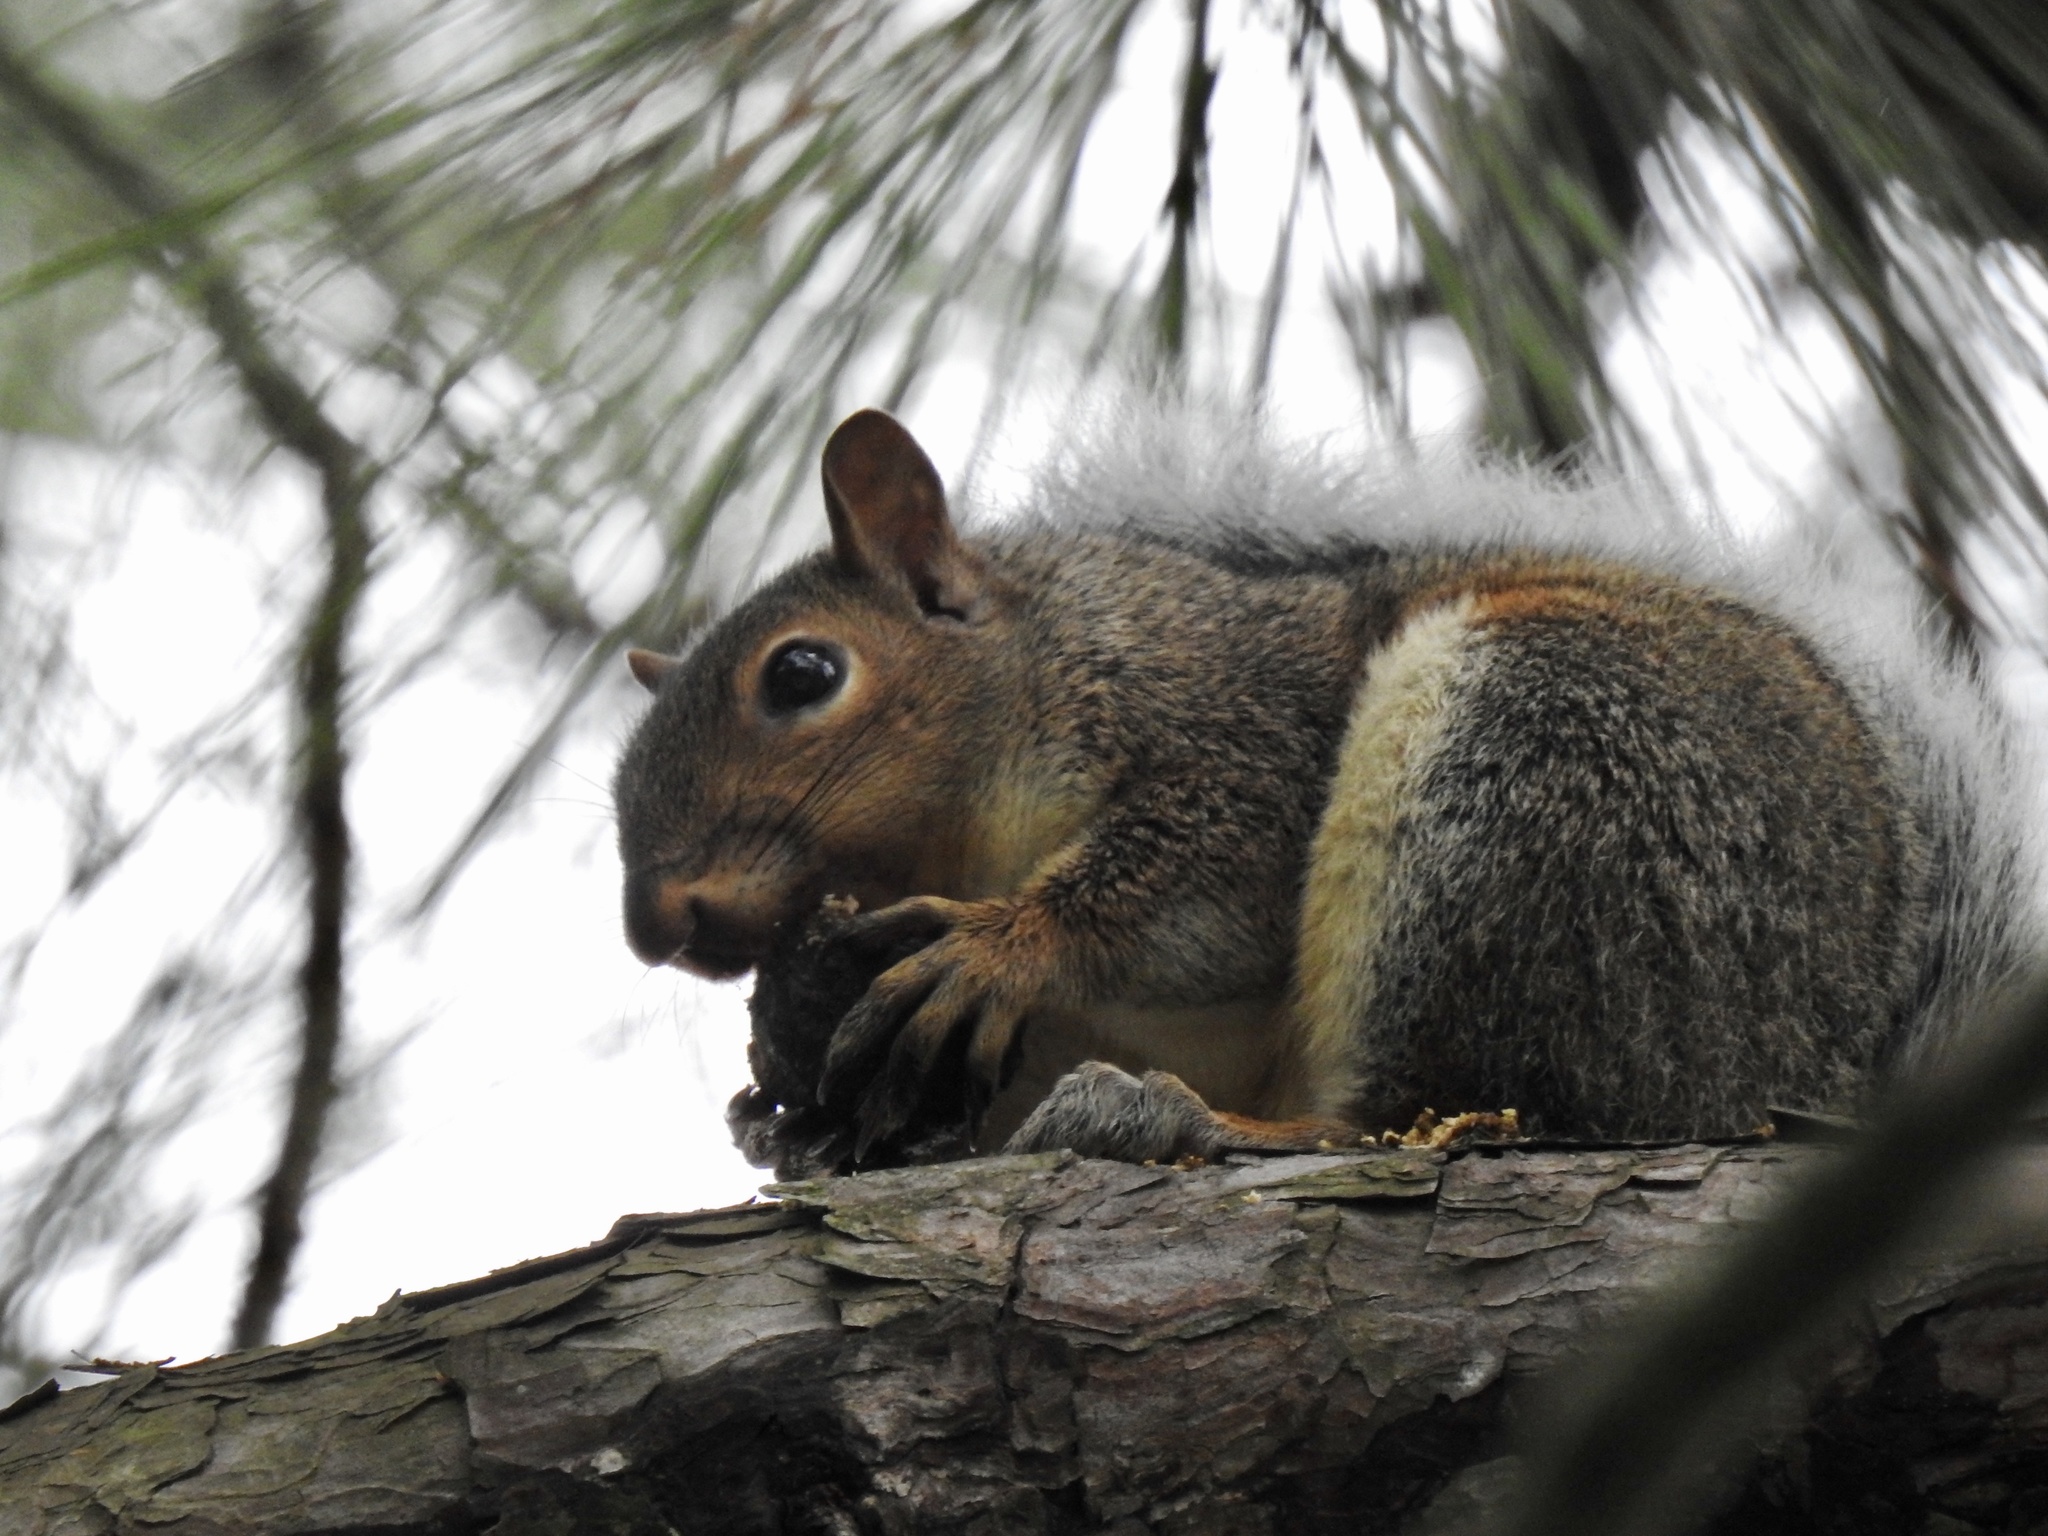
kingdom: Animalia
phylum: Chordata
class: Mammalia
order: Rodentia
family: Sciuridae
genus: Sciurus
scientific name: Sciurus carolinensis
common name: Eastern gray squirrel
